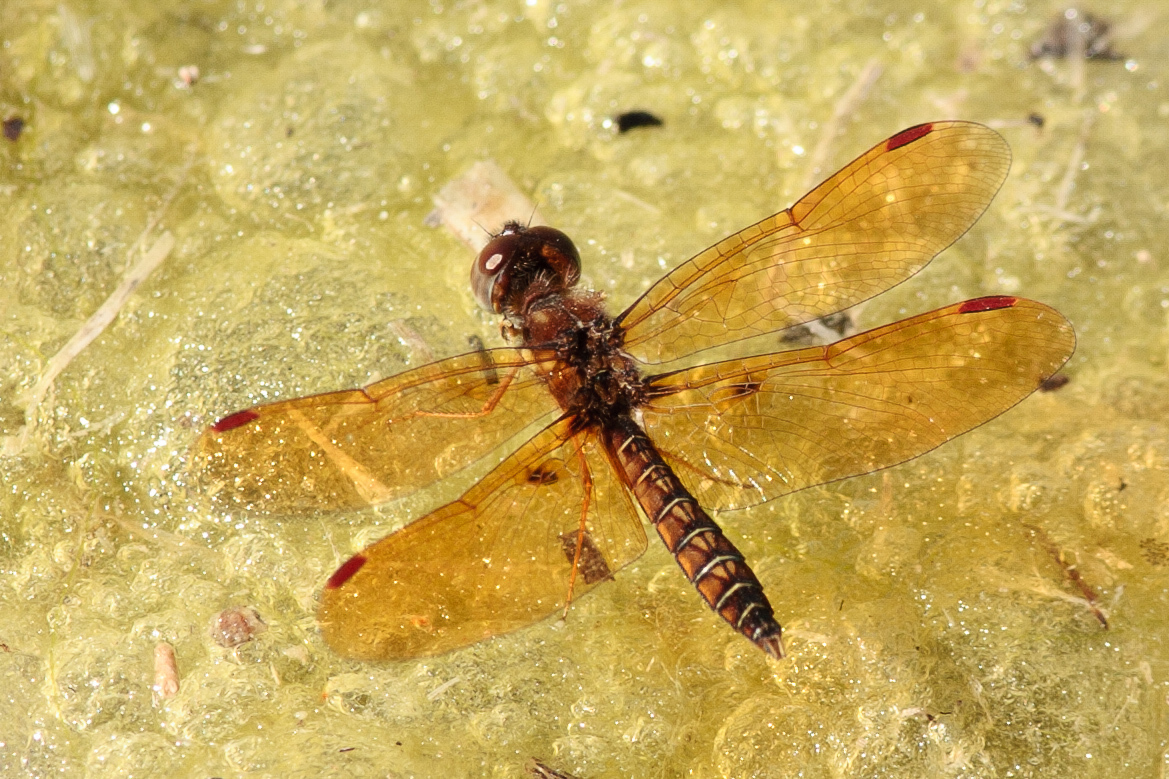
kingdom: Animalia
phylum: Arthropoda
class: Insecta
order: Odonata
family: Libellulidae
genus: Perithemis
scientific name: Perithemis tenera
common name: Eastern amberwing
